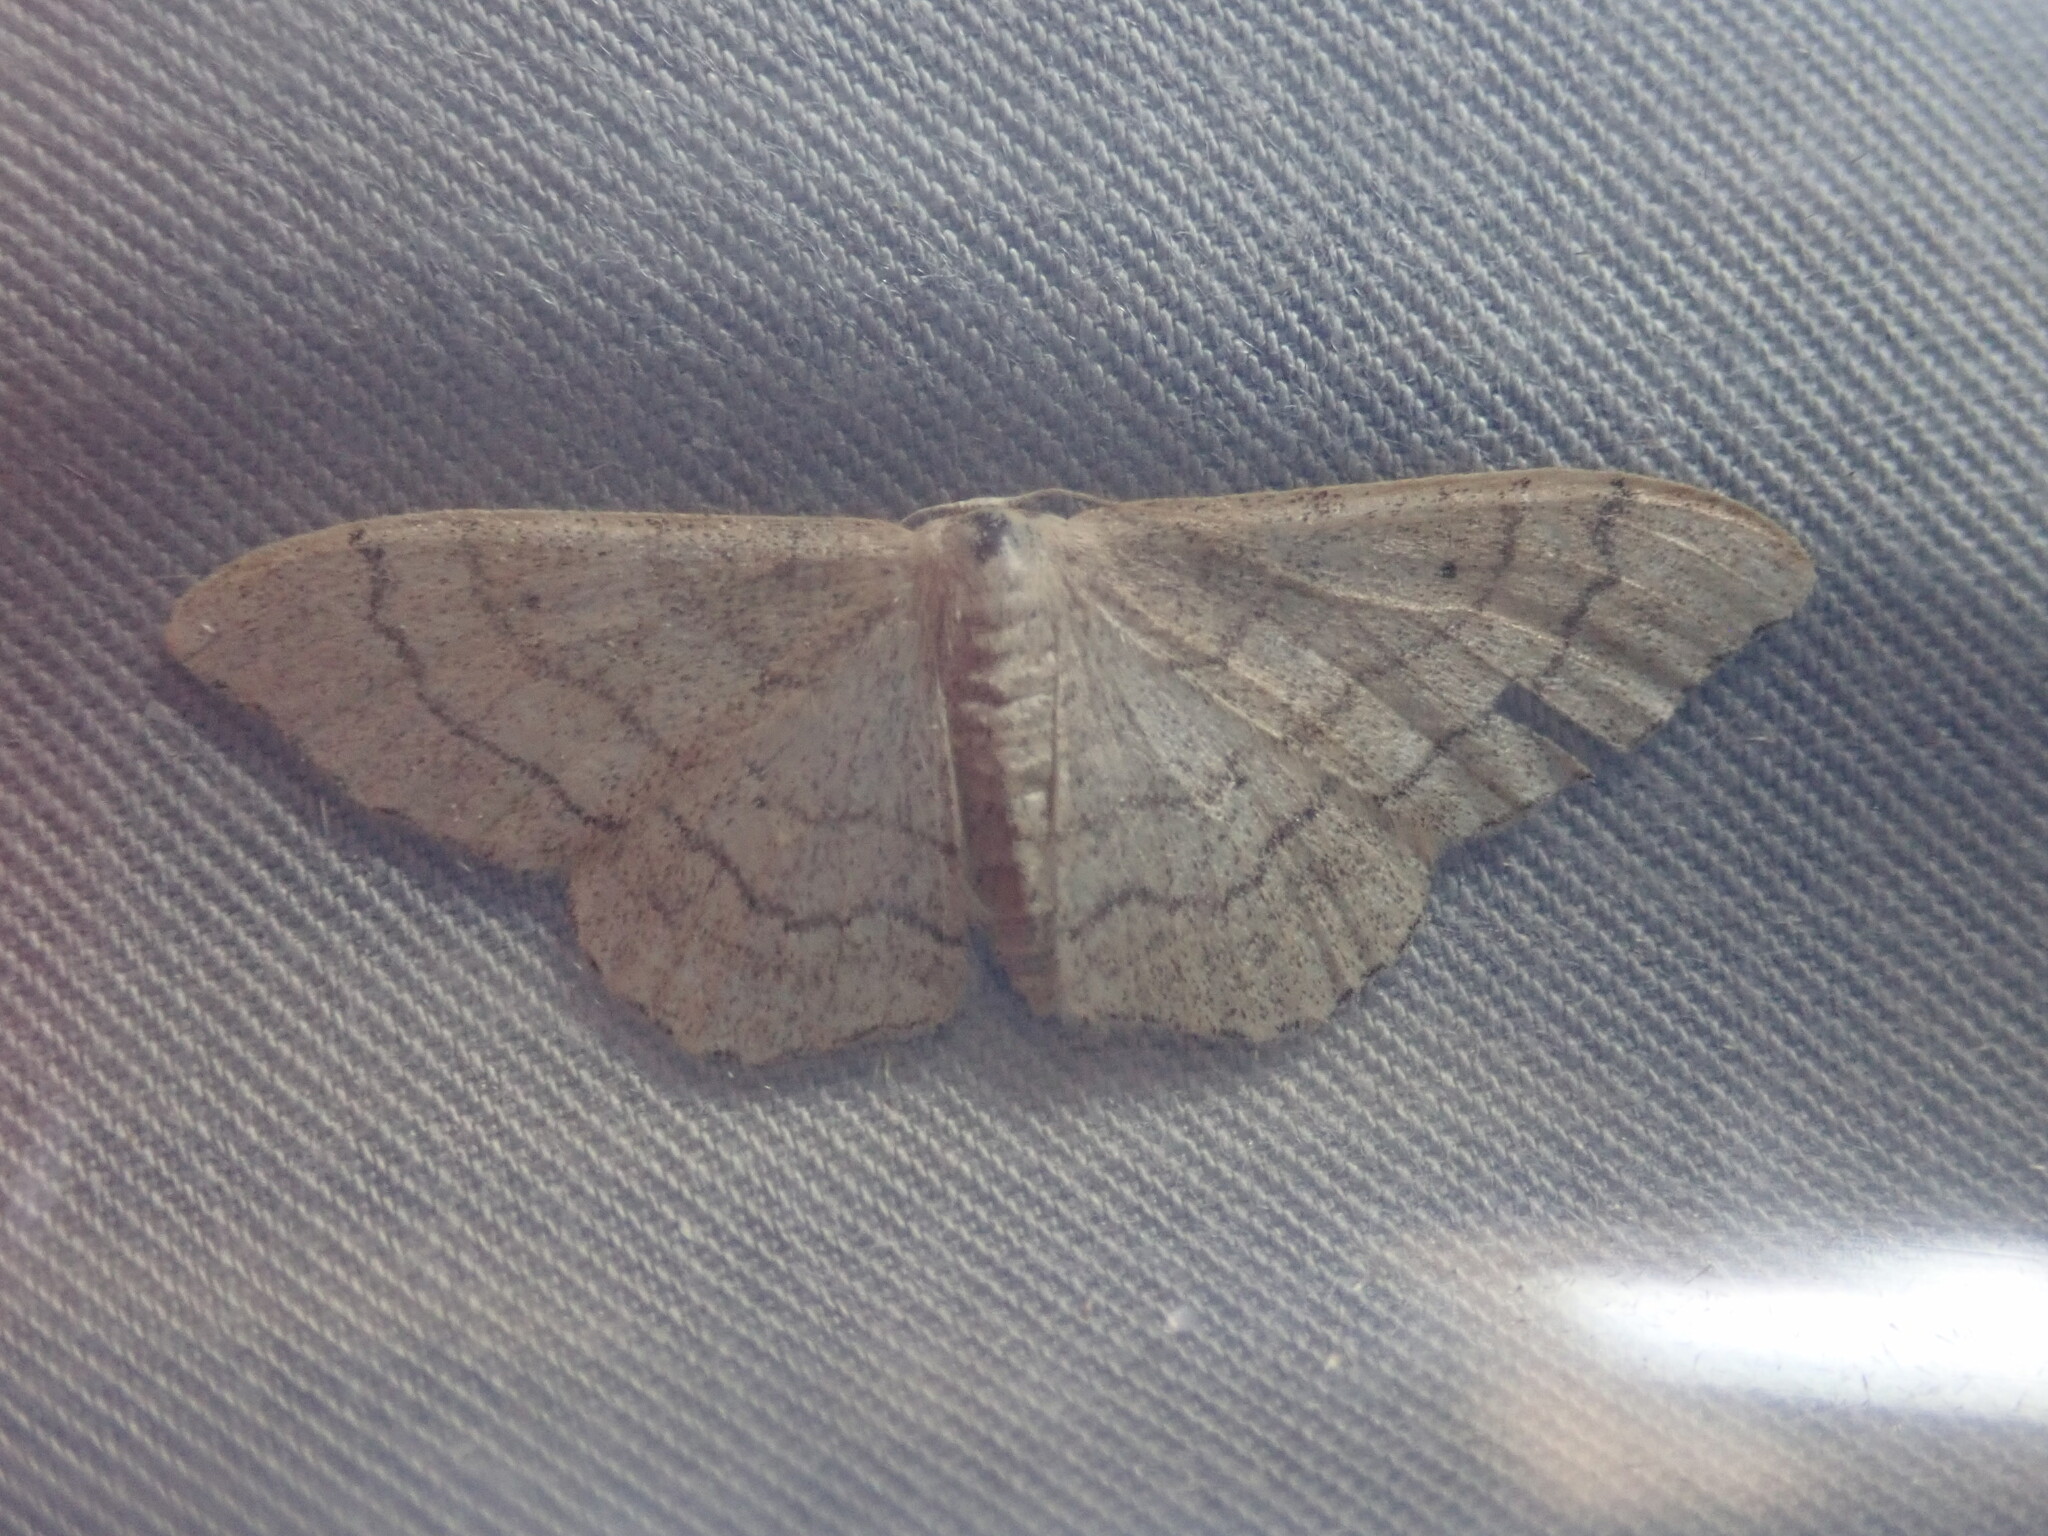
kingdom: Animalia
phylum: Arthropoda
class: Insecta
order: Lepidoptera
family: Geometridae
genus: Idaea
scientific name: Idaea aversata
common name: Riband wave
